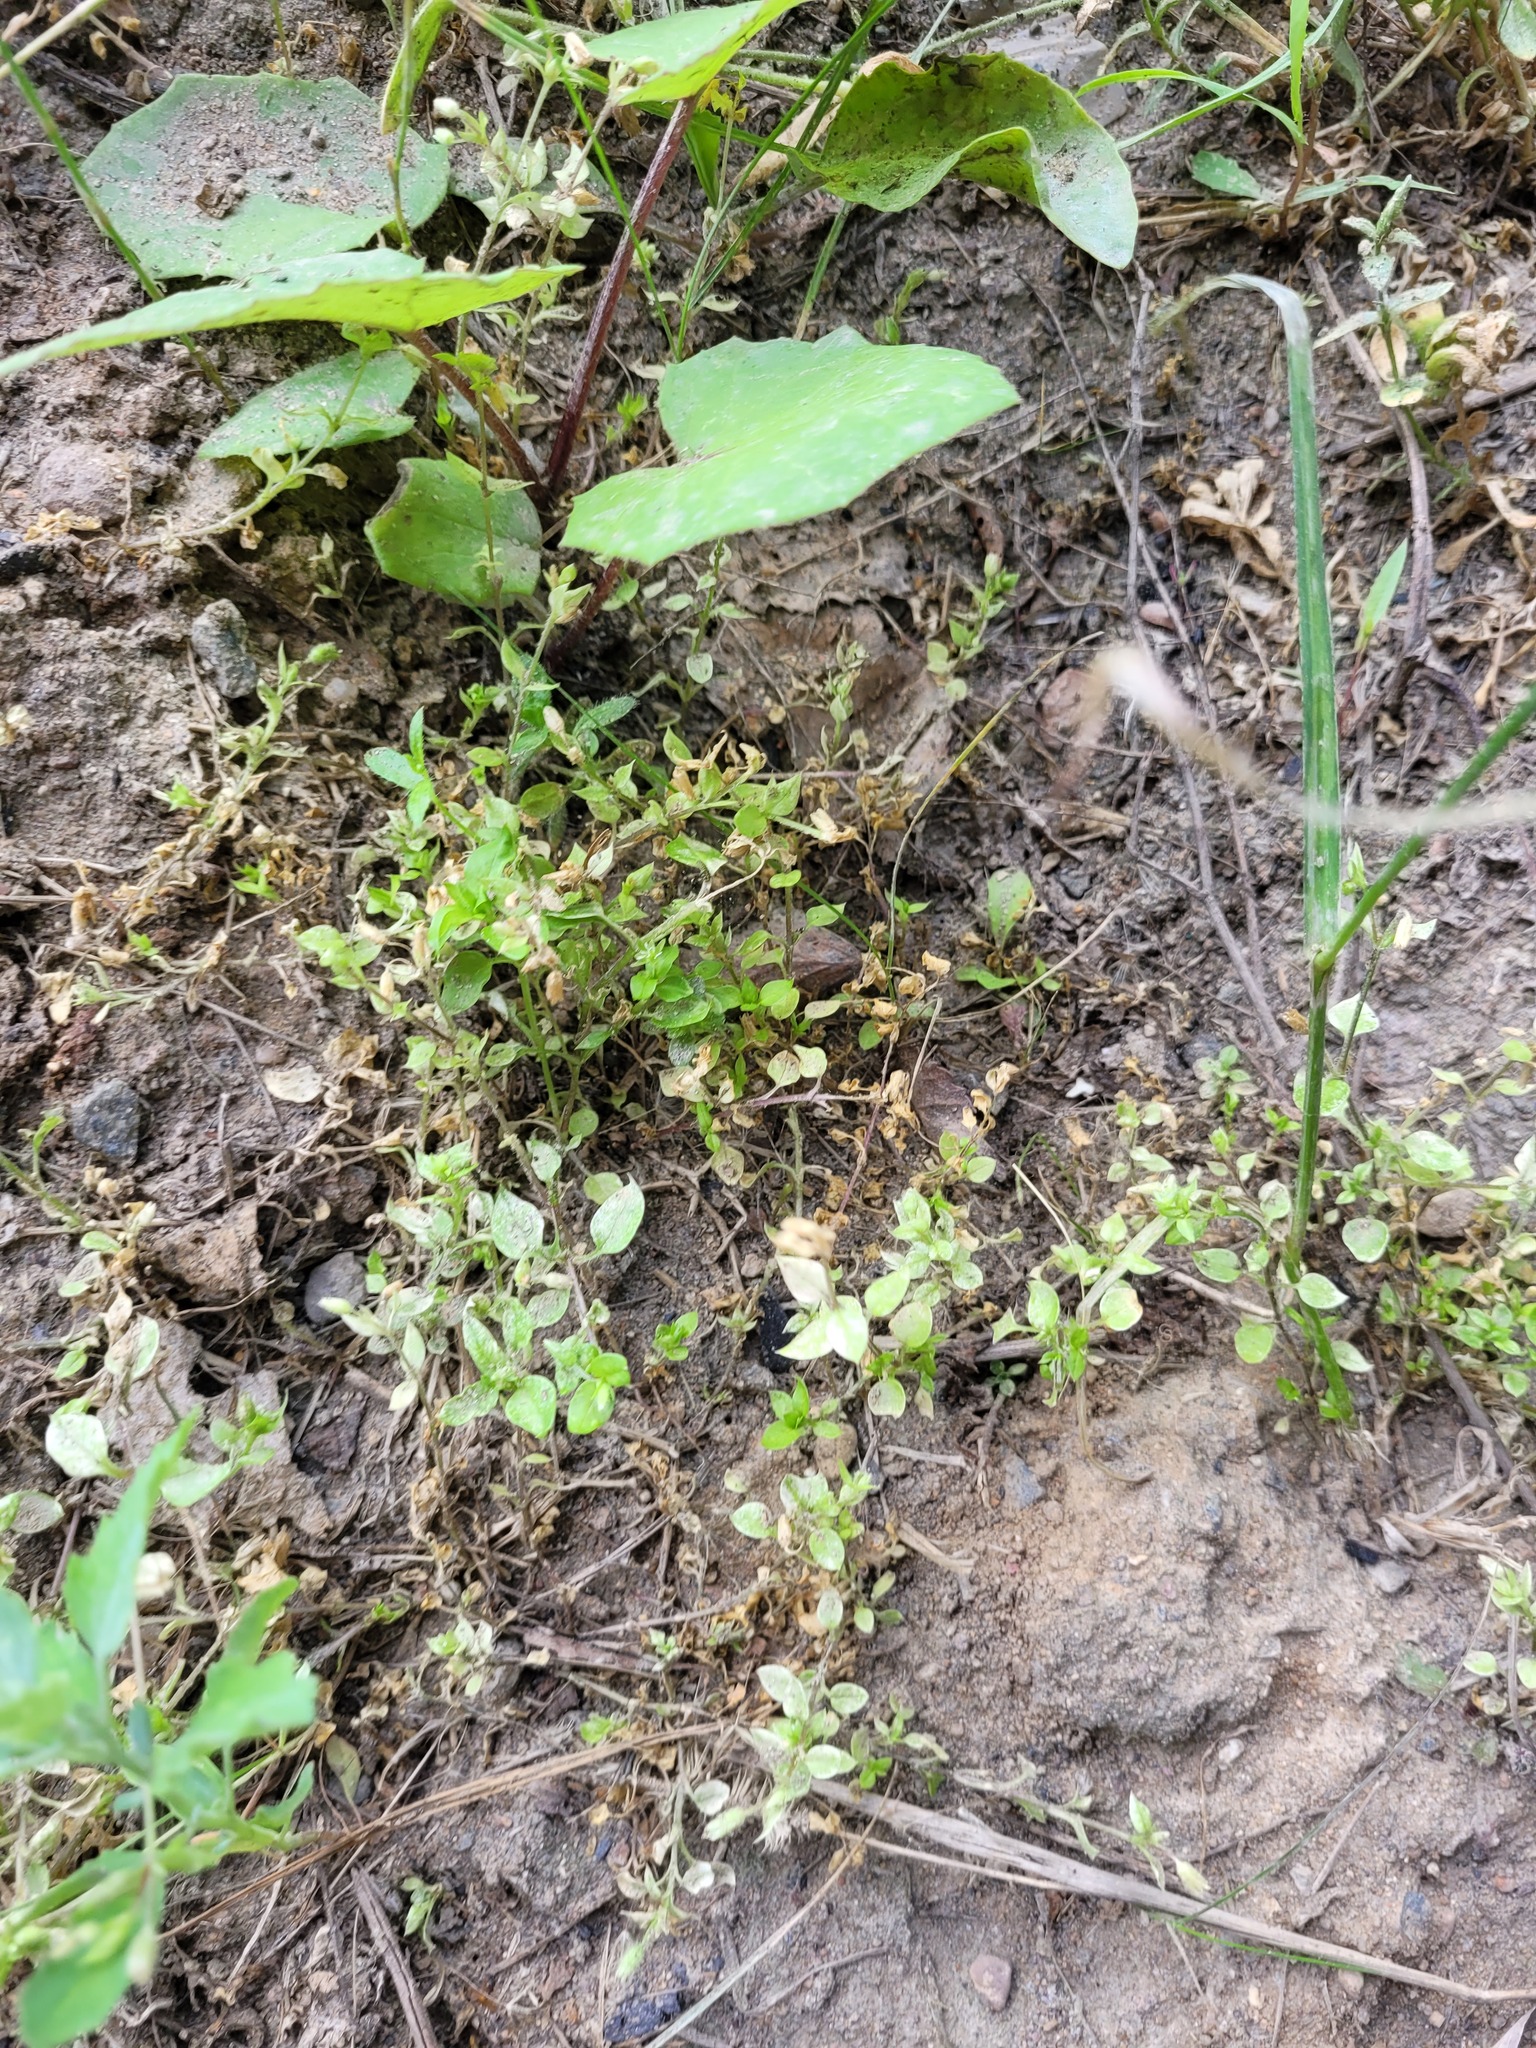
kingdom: Plantae
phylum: Tracheophyta
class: Magnoliopsida
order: Caryophyllales
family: Caryophyllaceae
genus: Stellaria
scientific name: Stellaria media
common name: Common chickweed
